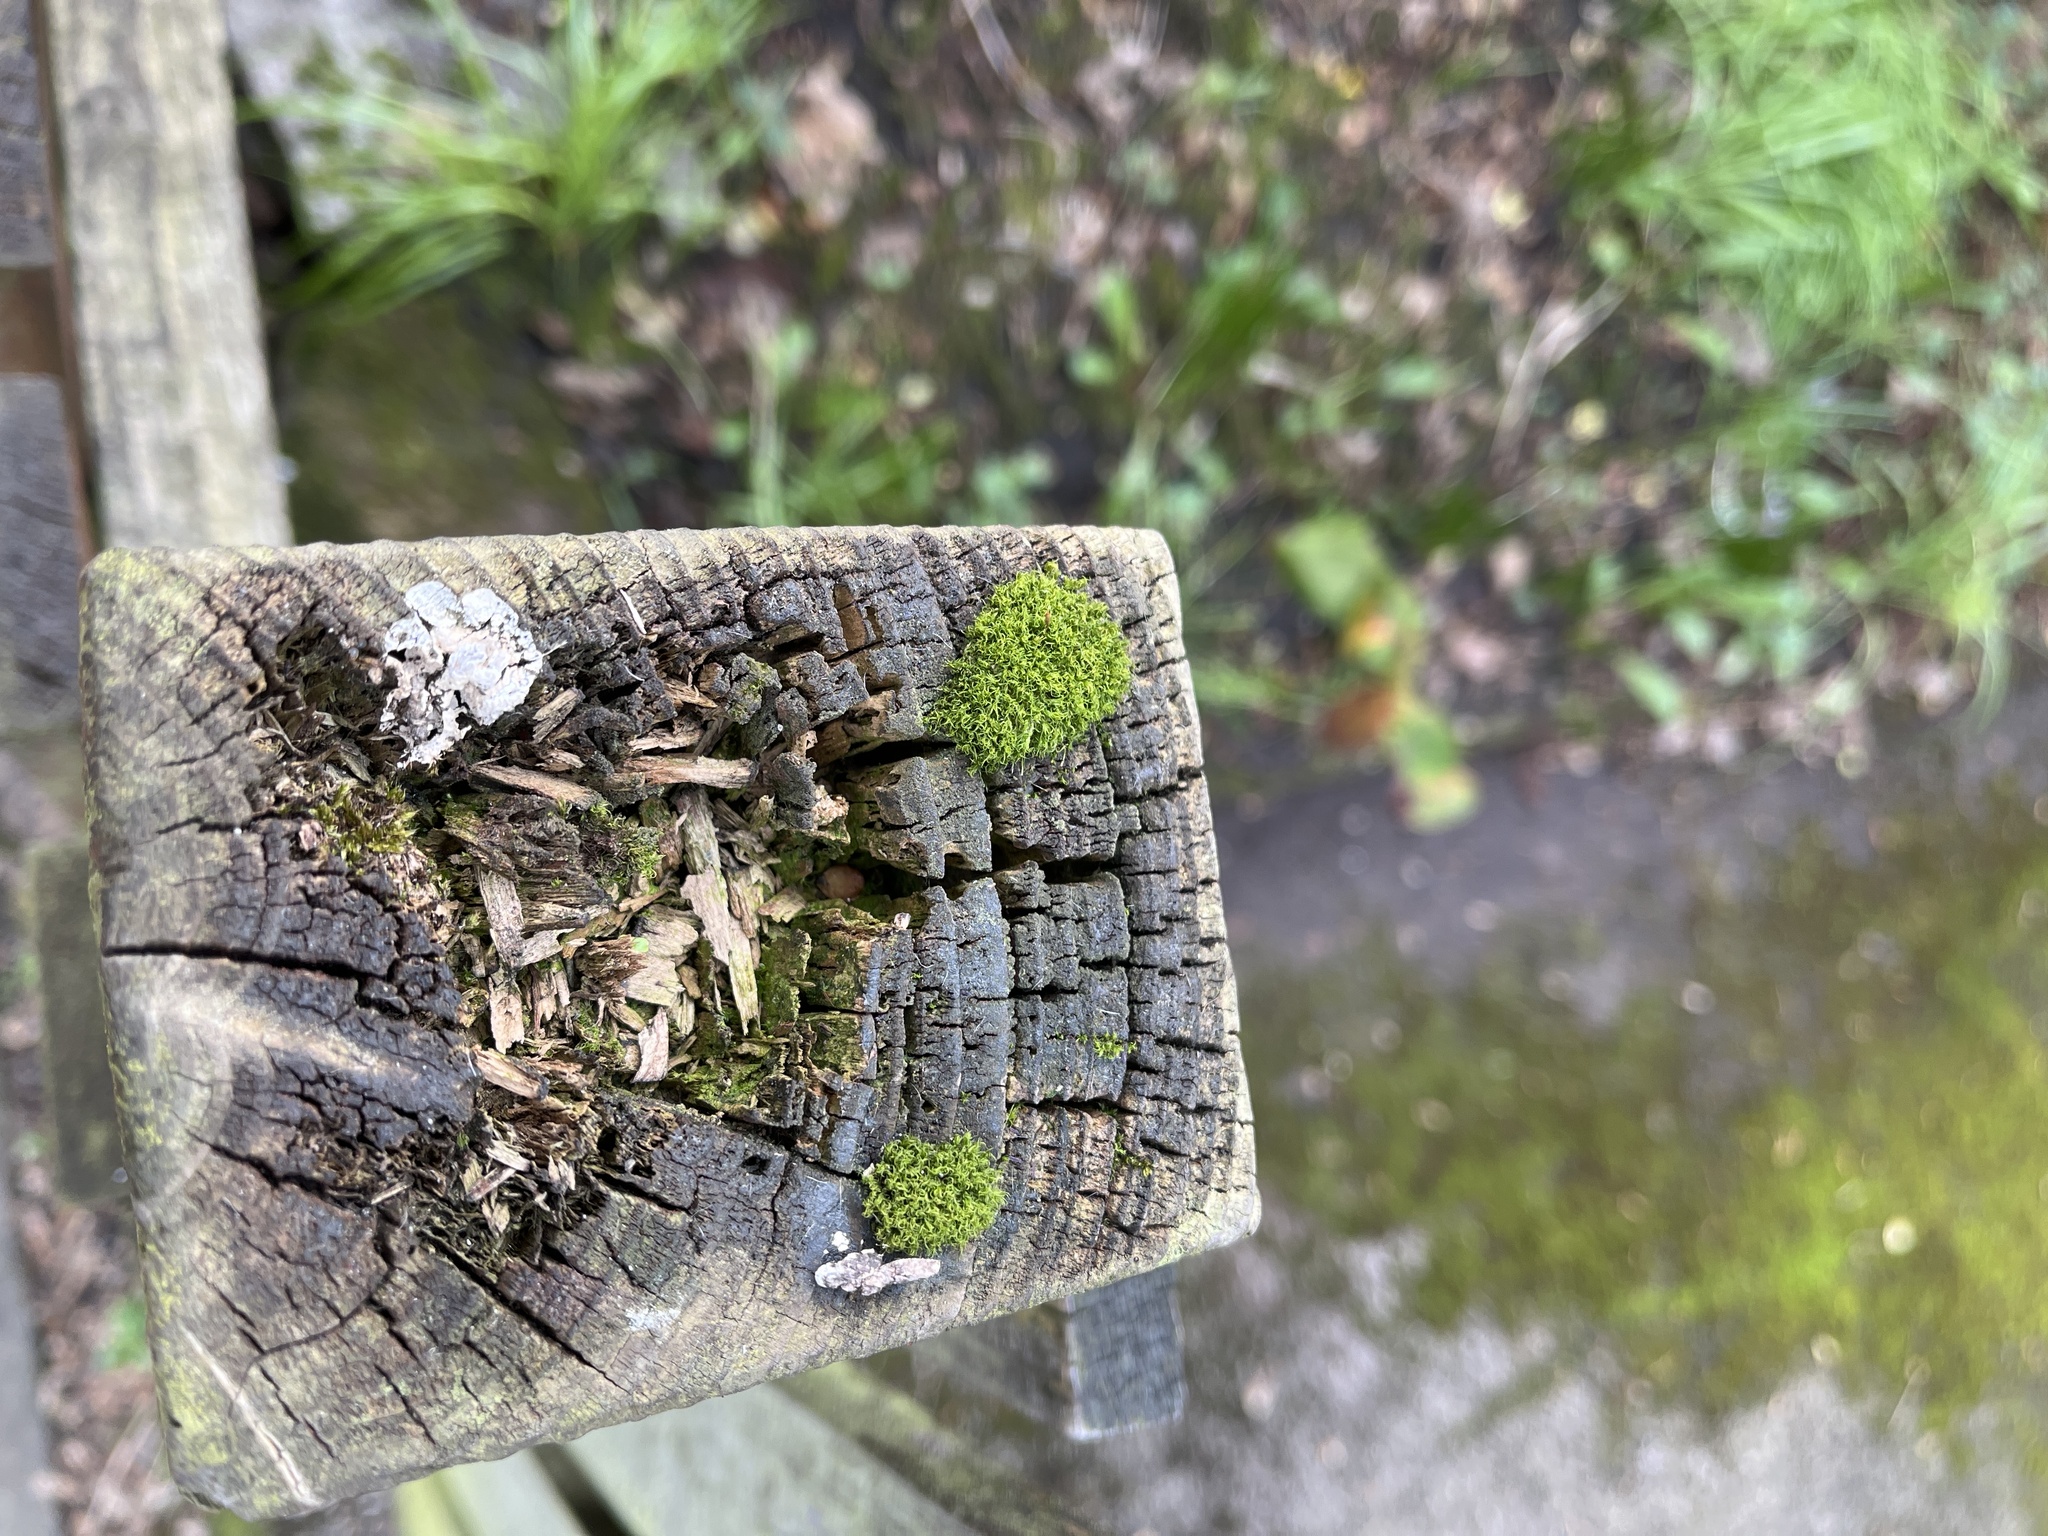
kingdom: Plantae
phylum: Bryophyta
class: Bryopsida
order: Dicranales
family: Rhabdoweisiaceae
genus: Dicranoweisia
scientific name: Dicranoweisia cirrata
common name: Common pincushion
